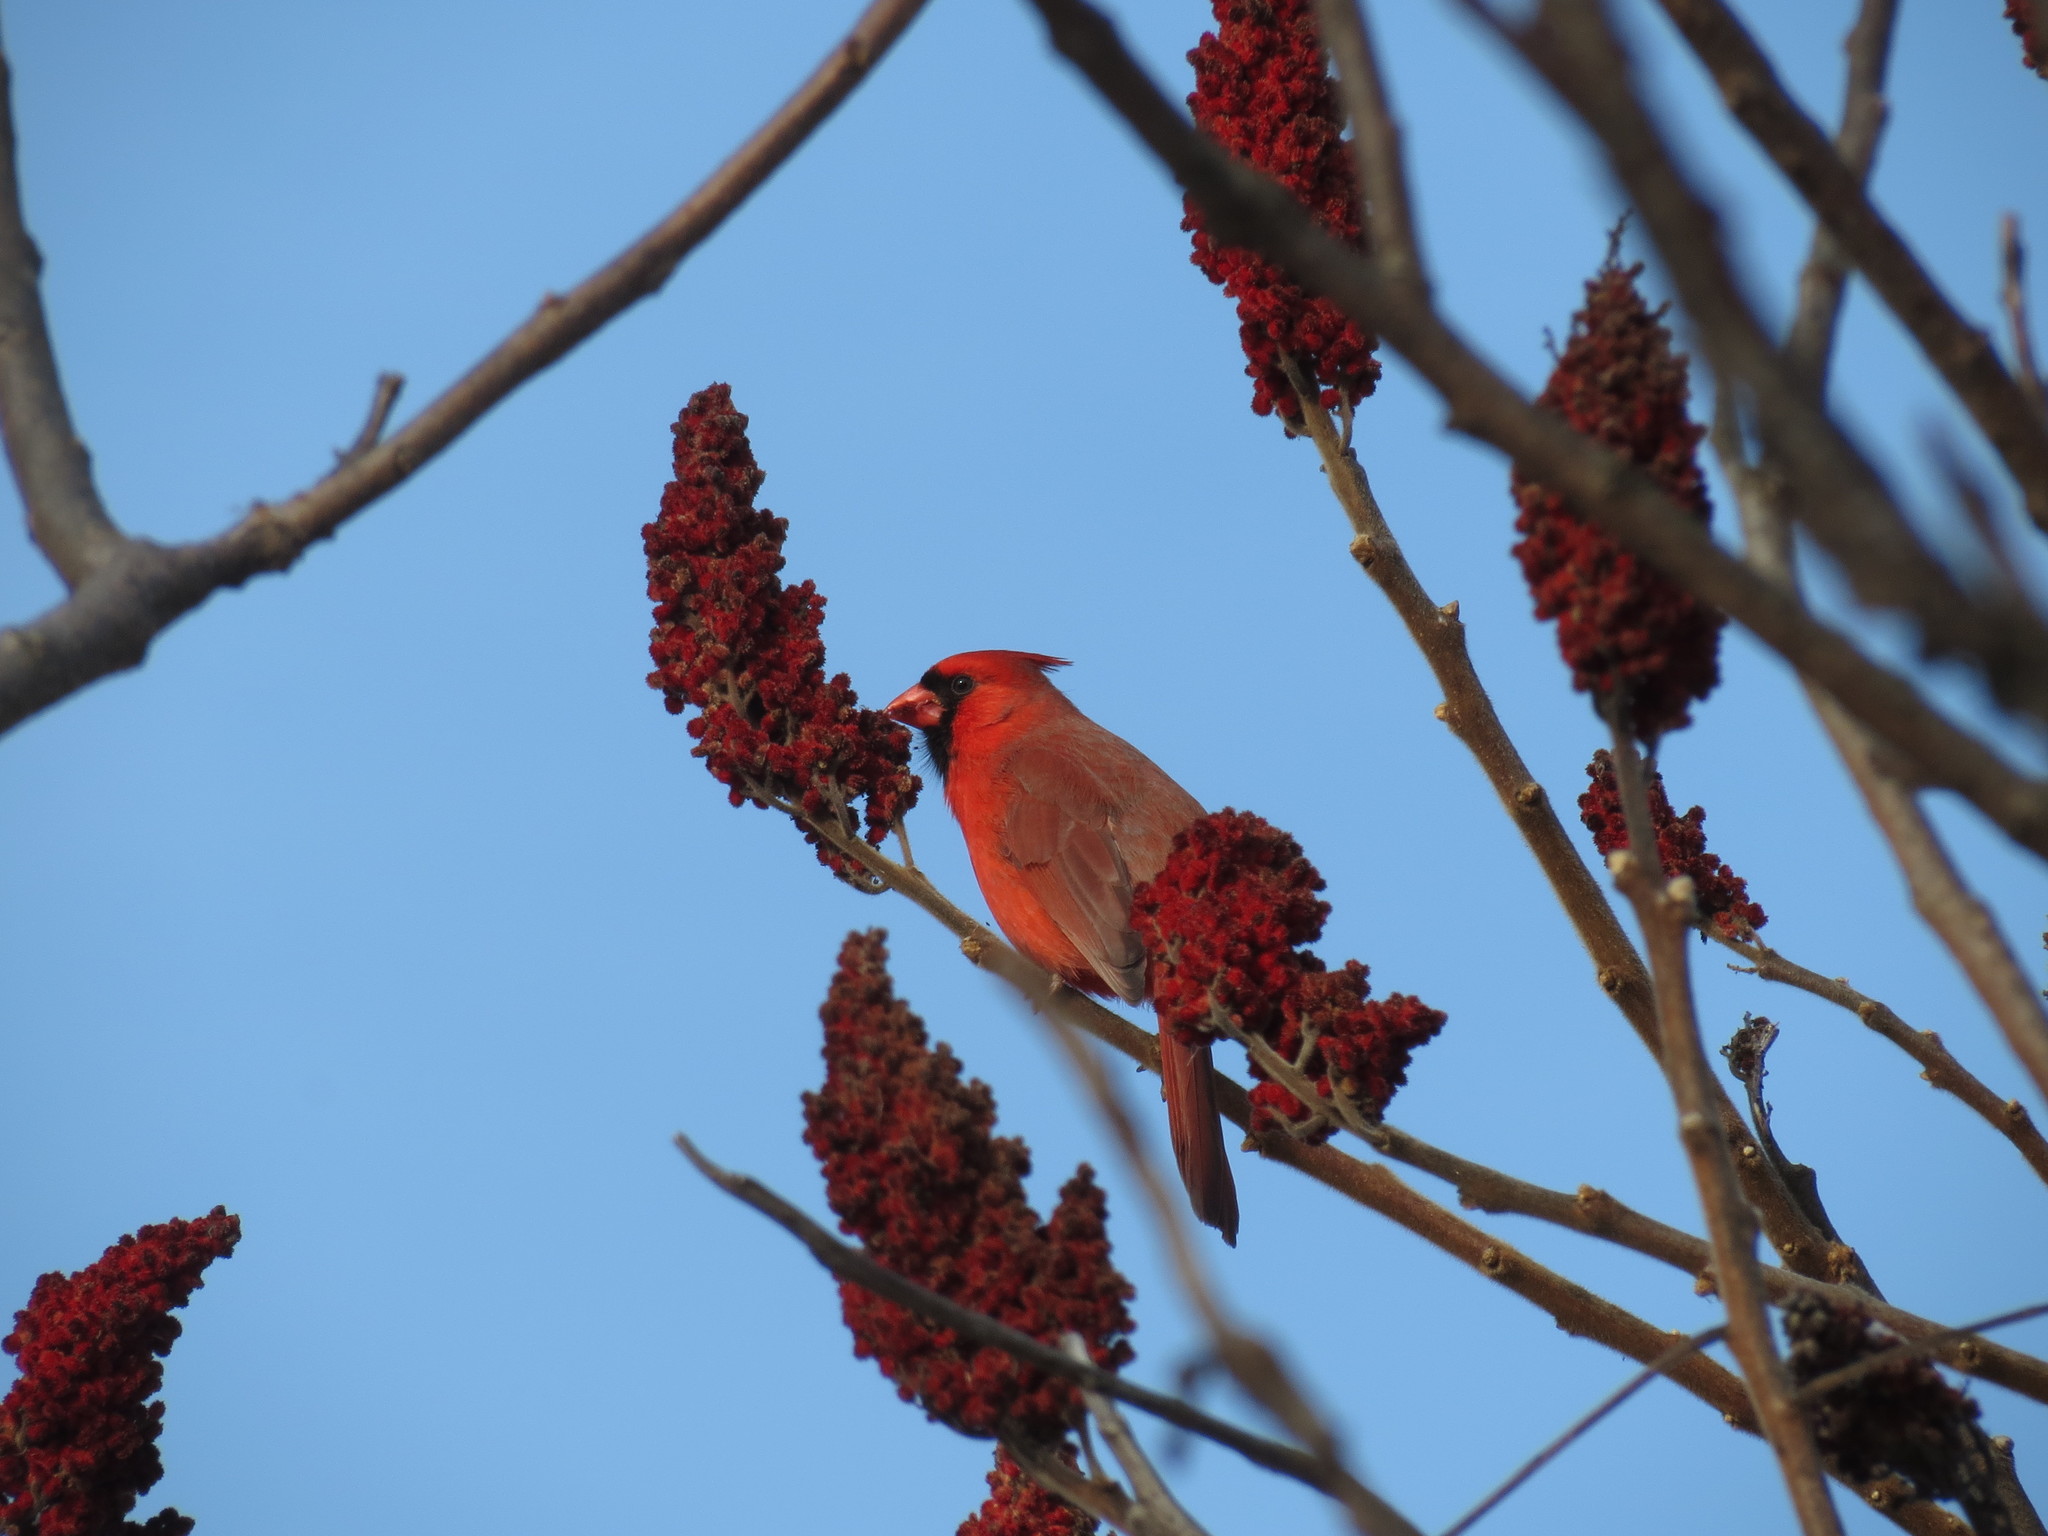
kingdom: Animalia
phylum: Chordata
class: Aves
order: Passeriformes
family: Cardinalidae
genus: Cardinalis
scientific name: Cardinalis cardinalis
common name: Northern cardinal
